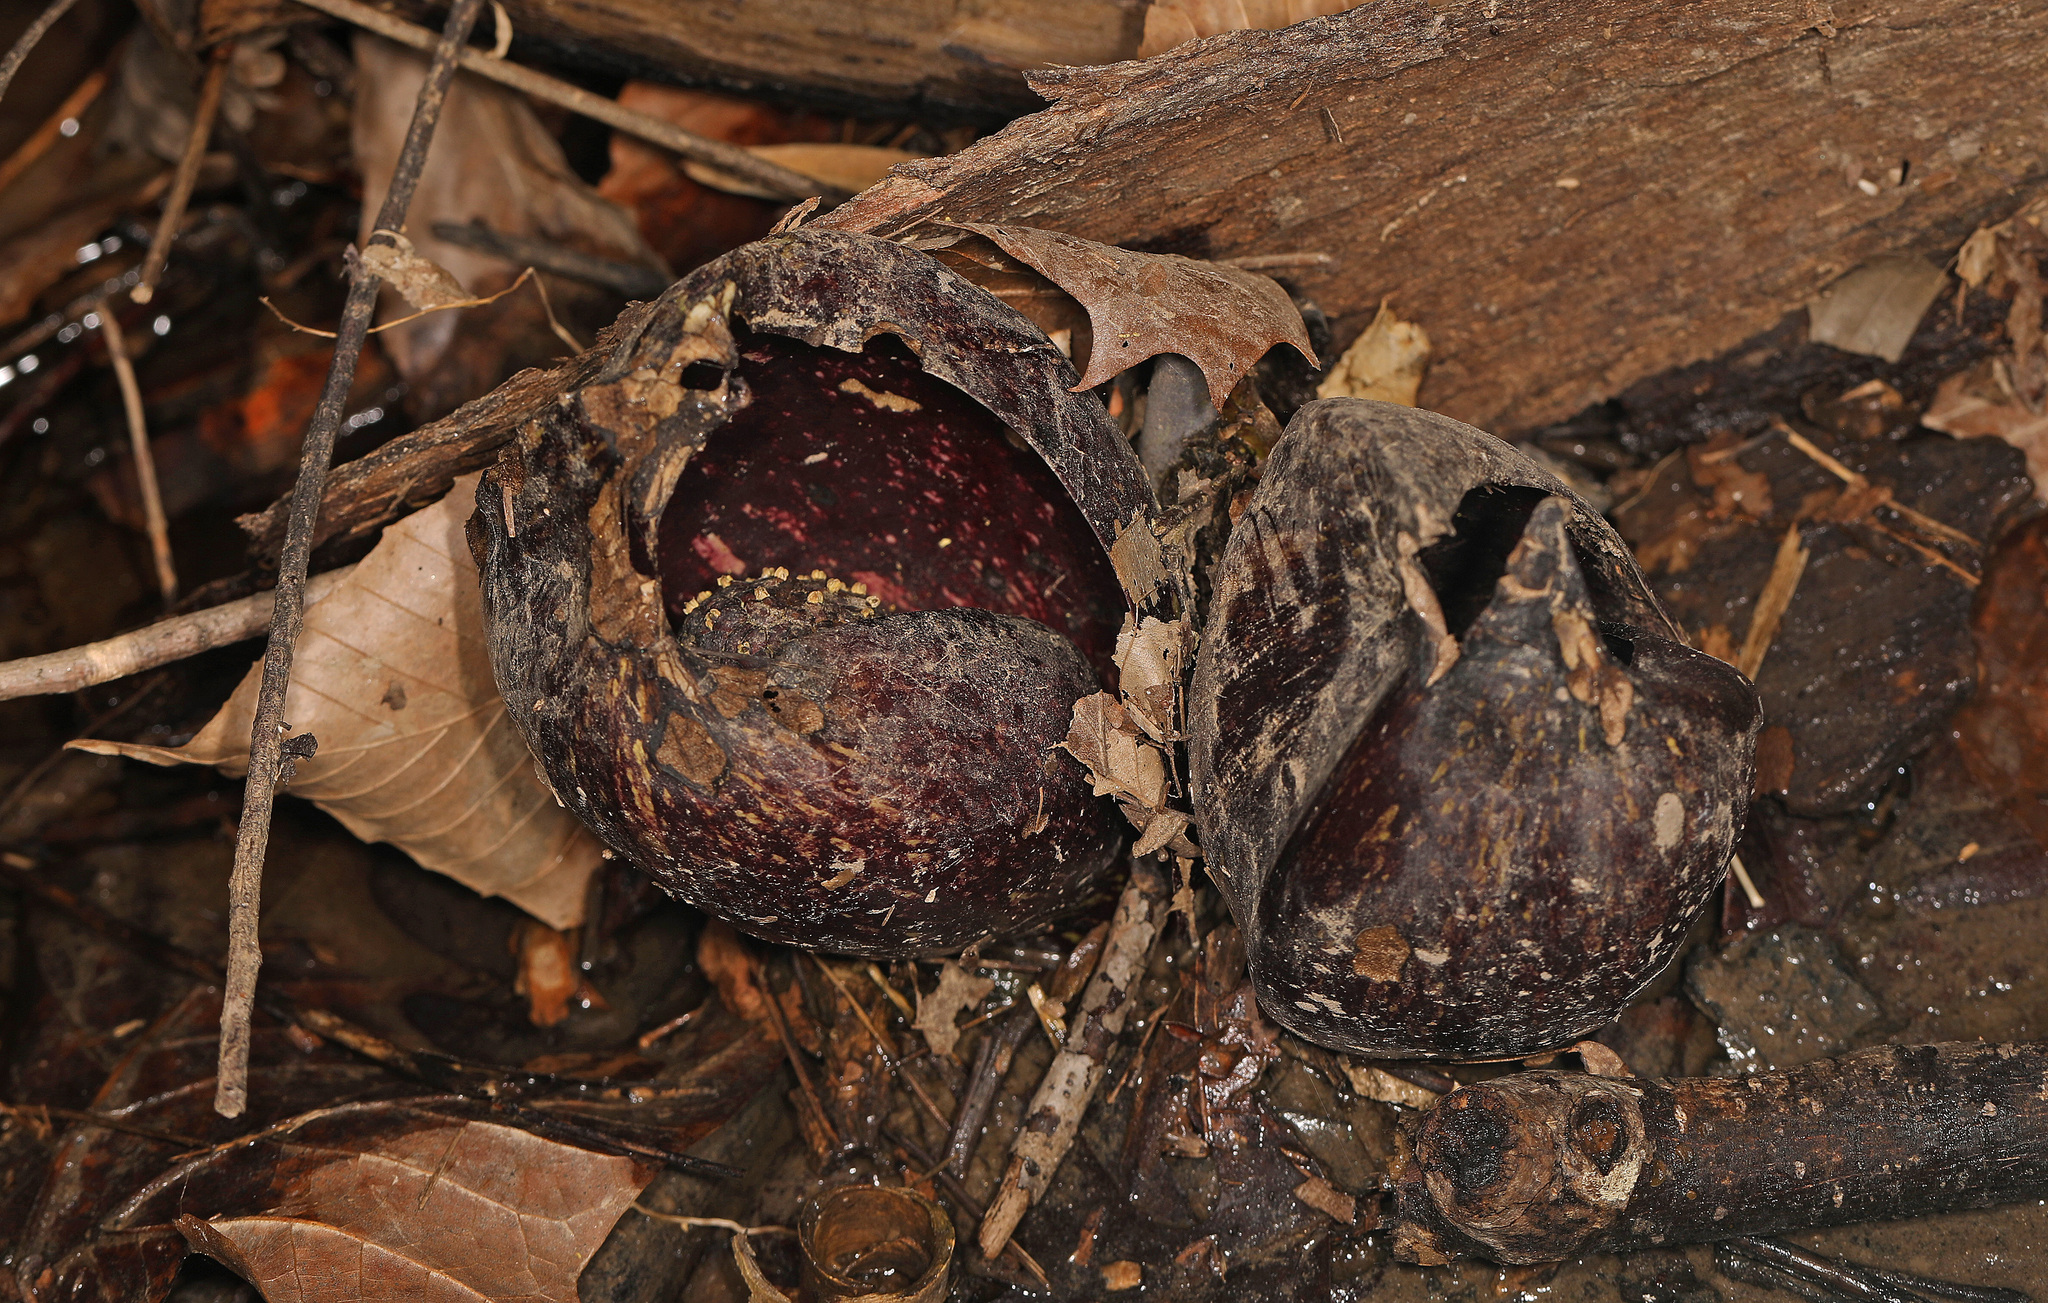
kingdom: Plantae
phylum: Tracheophyta
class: Liliopsida
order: Alismatales
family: Araceae
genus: Symplocarpus
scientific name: Symplocarpus foetidus
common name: Eastern skunk cabbage
